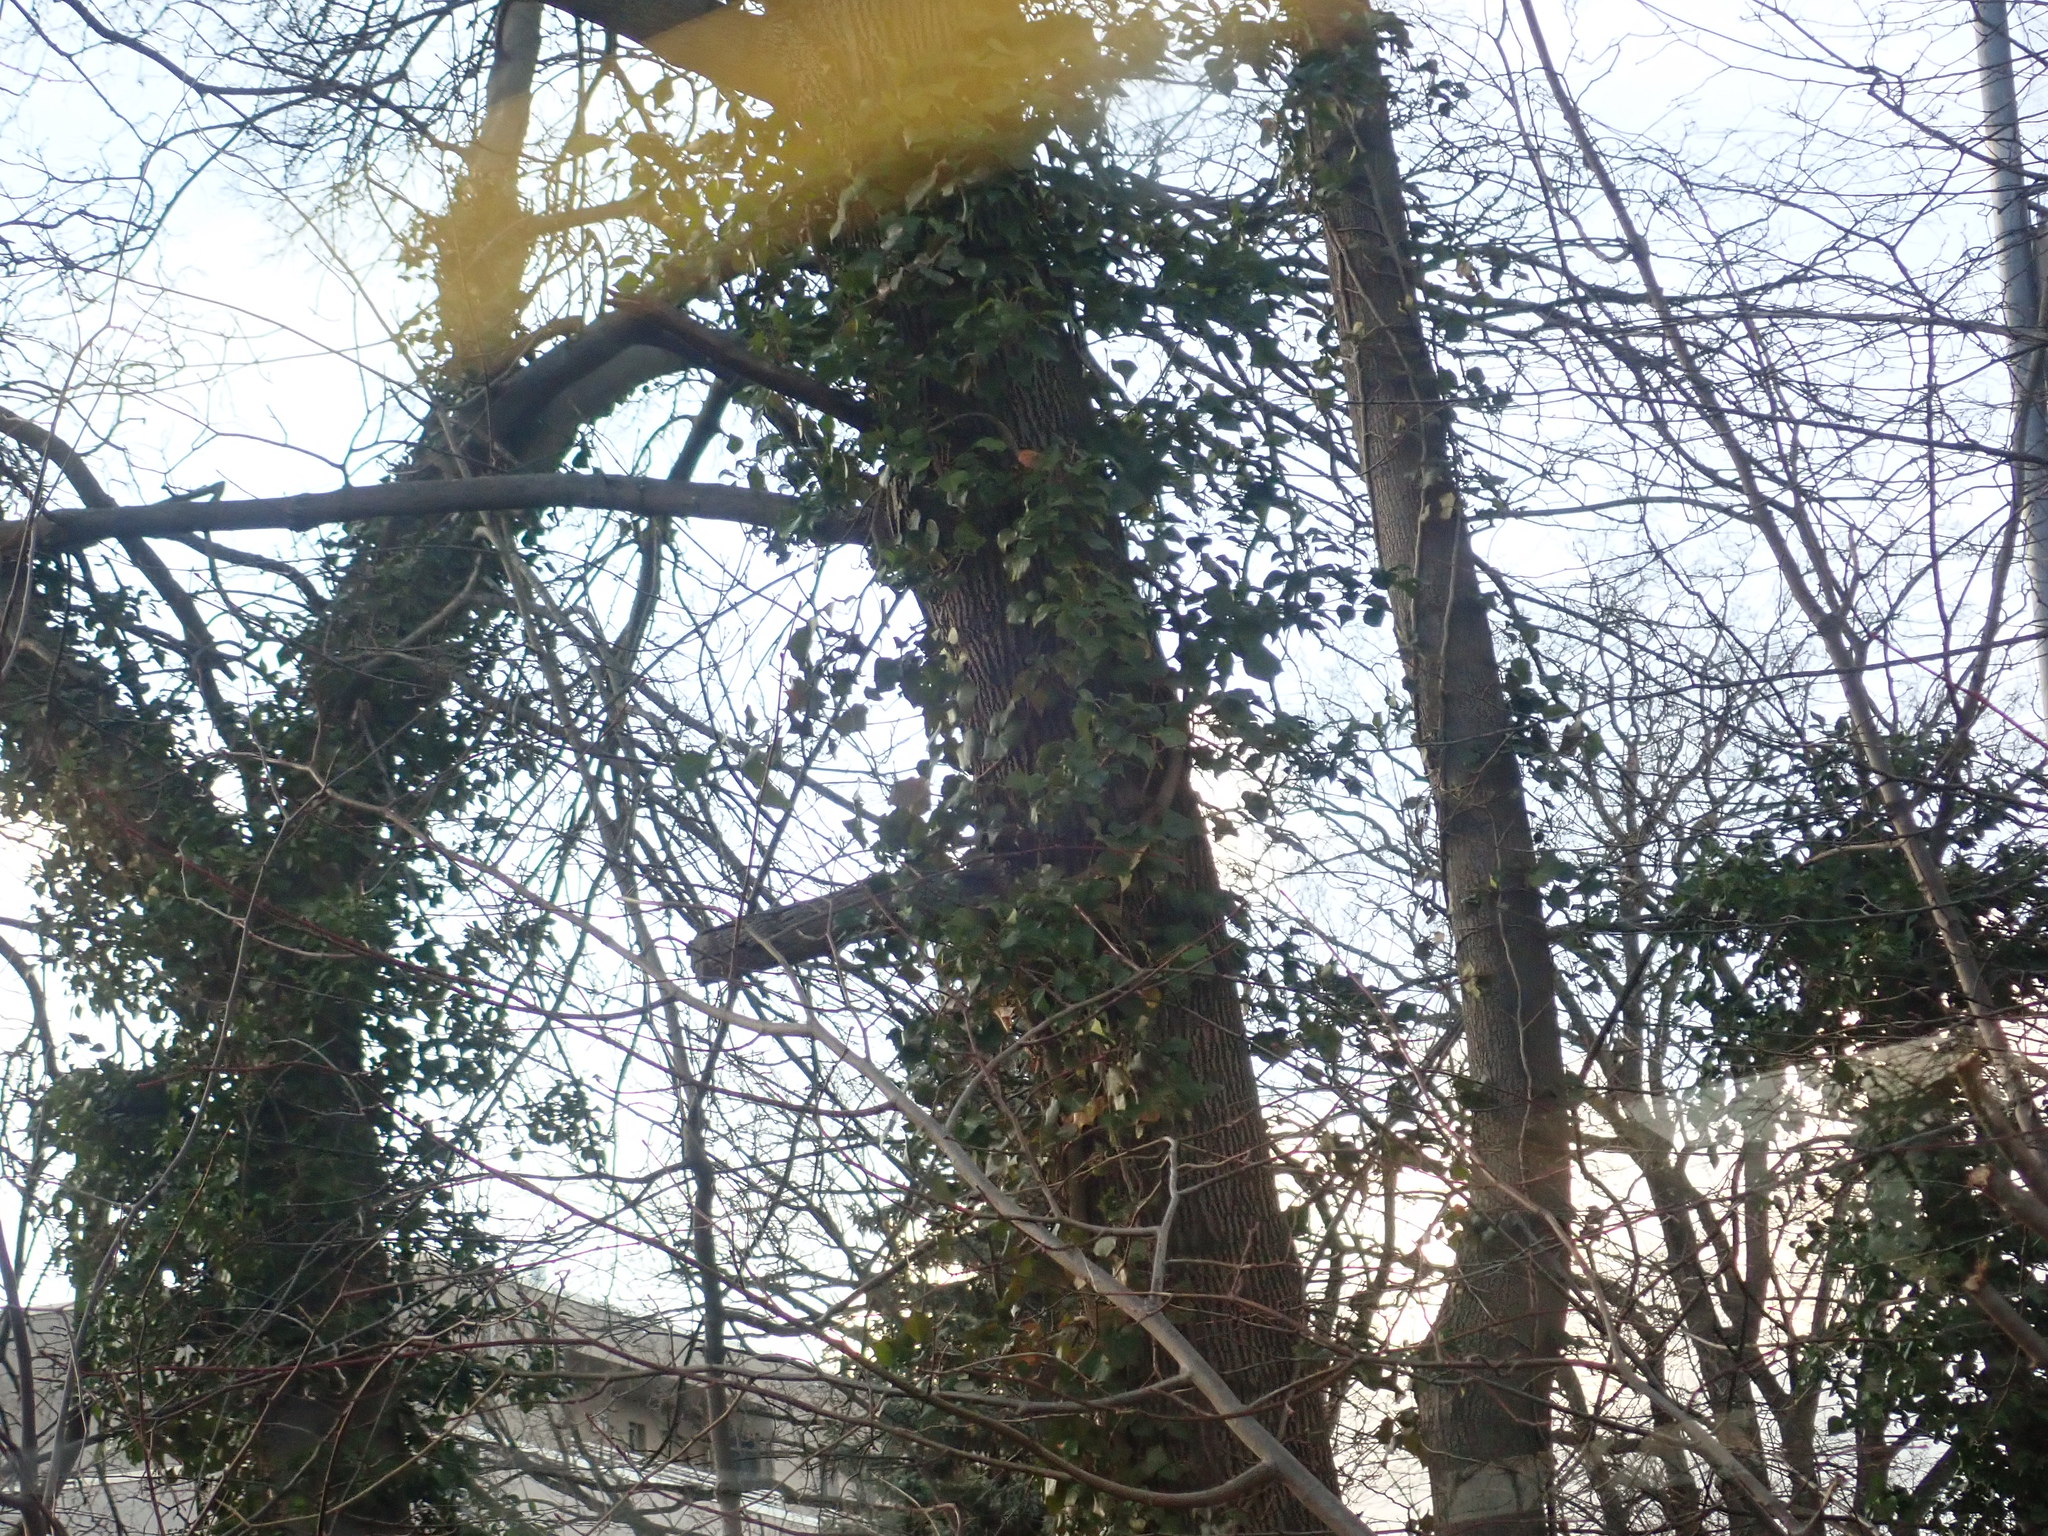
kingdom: Plantae
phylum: Tracheophyta
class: Magnoliopsida
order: Apiales
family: Araliaceae
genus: Hedera
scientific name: Hedera helix
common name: Ivy
